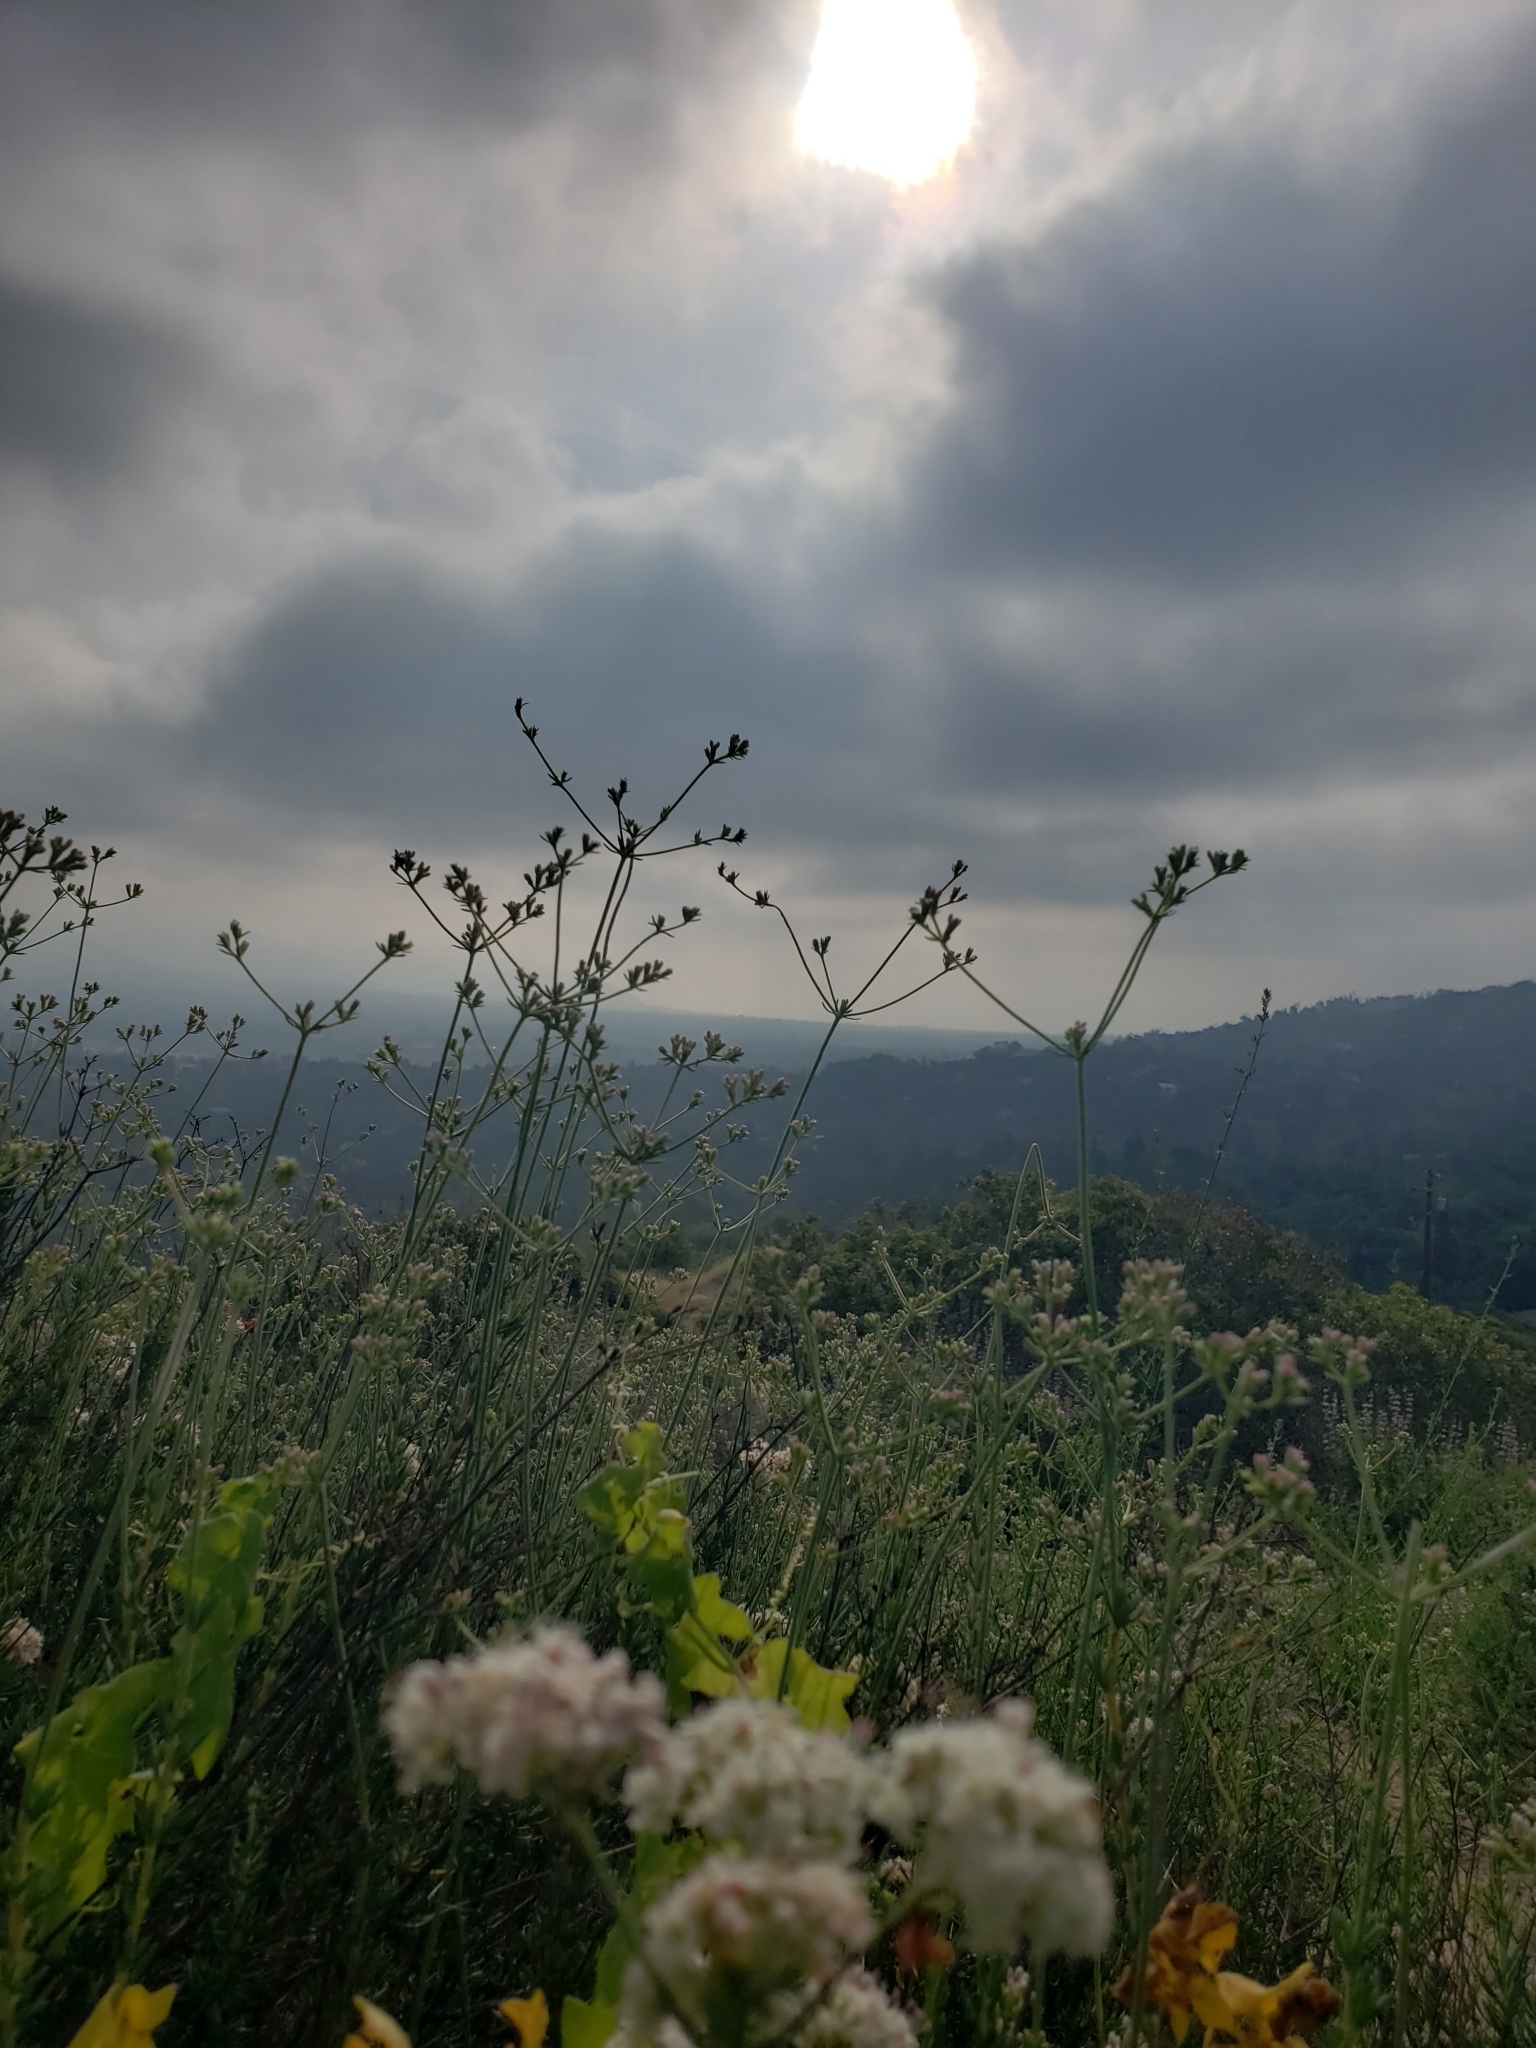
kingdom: Plantae
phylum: Tracheophyta
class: Magnoliopsida
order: Caryophyllales
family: Polygonaceae
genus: Eriogonum
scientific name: Eriogonum fasciculatum
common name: California wild buckwheat
